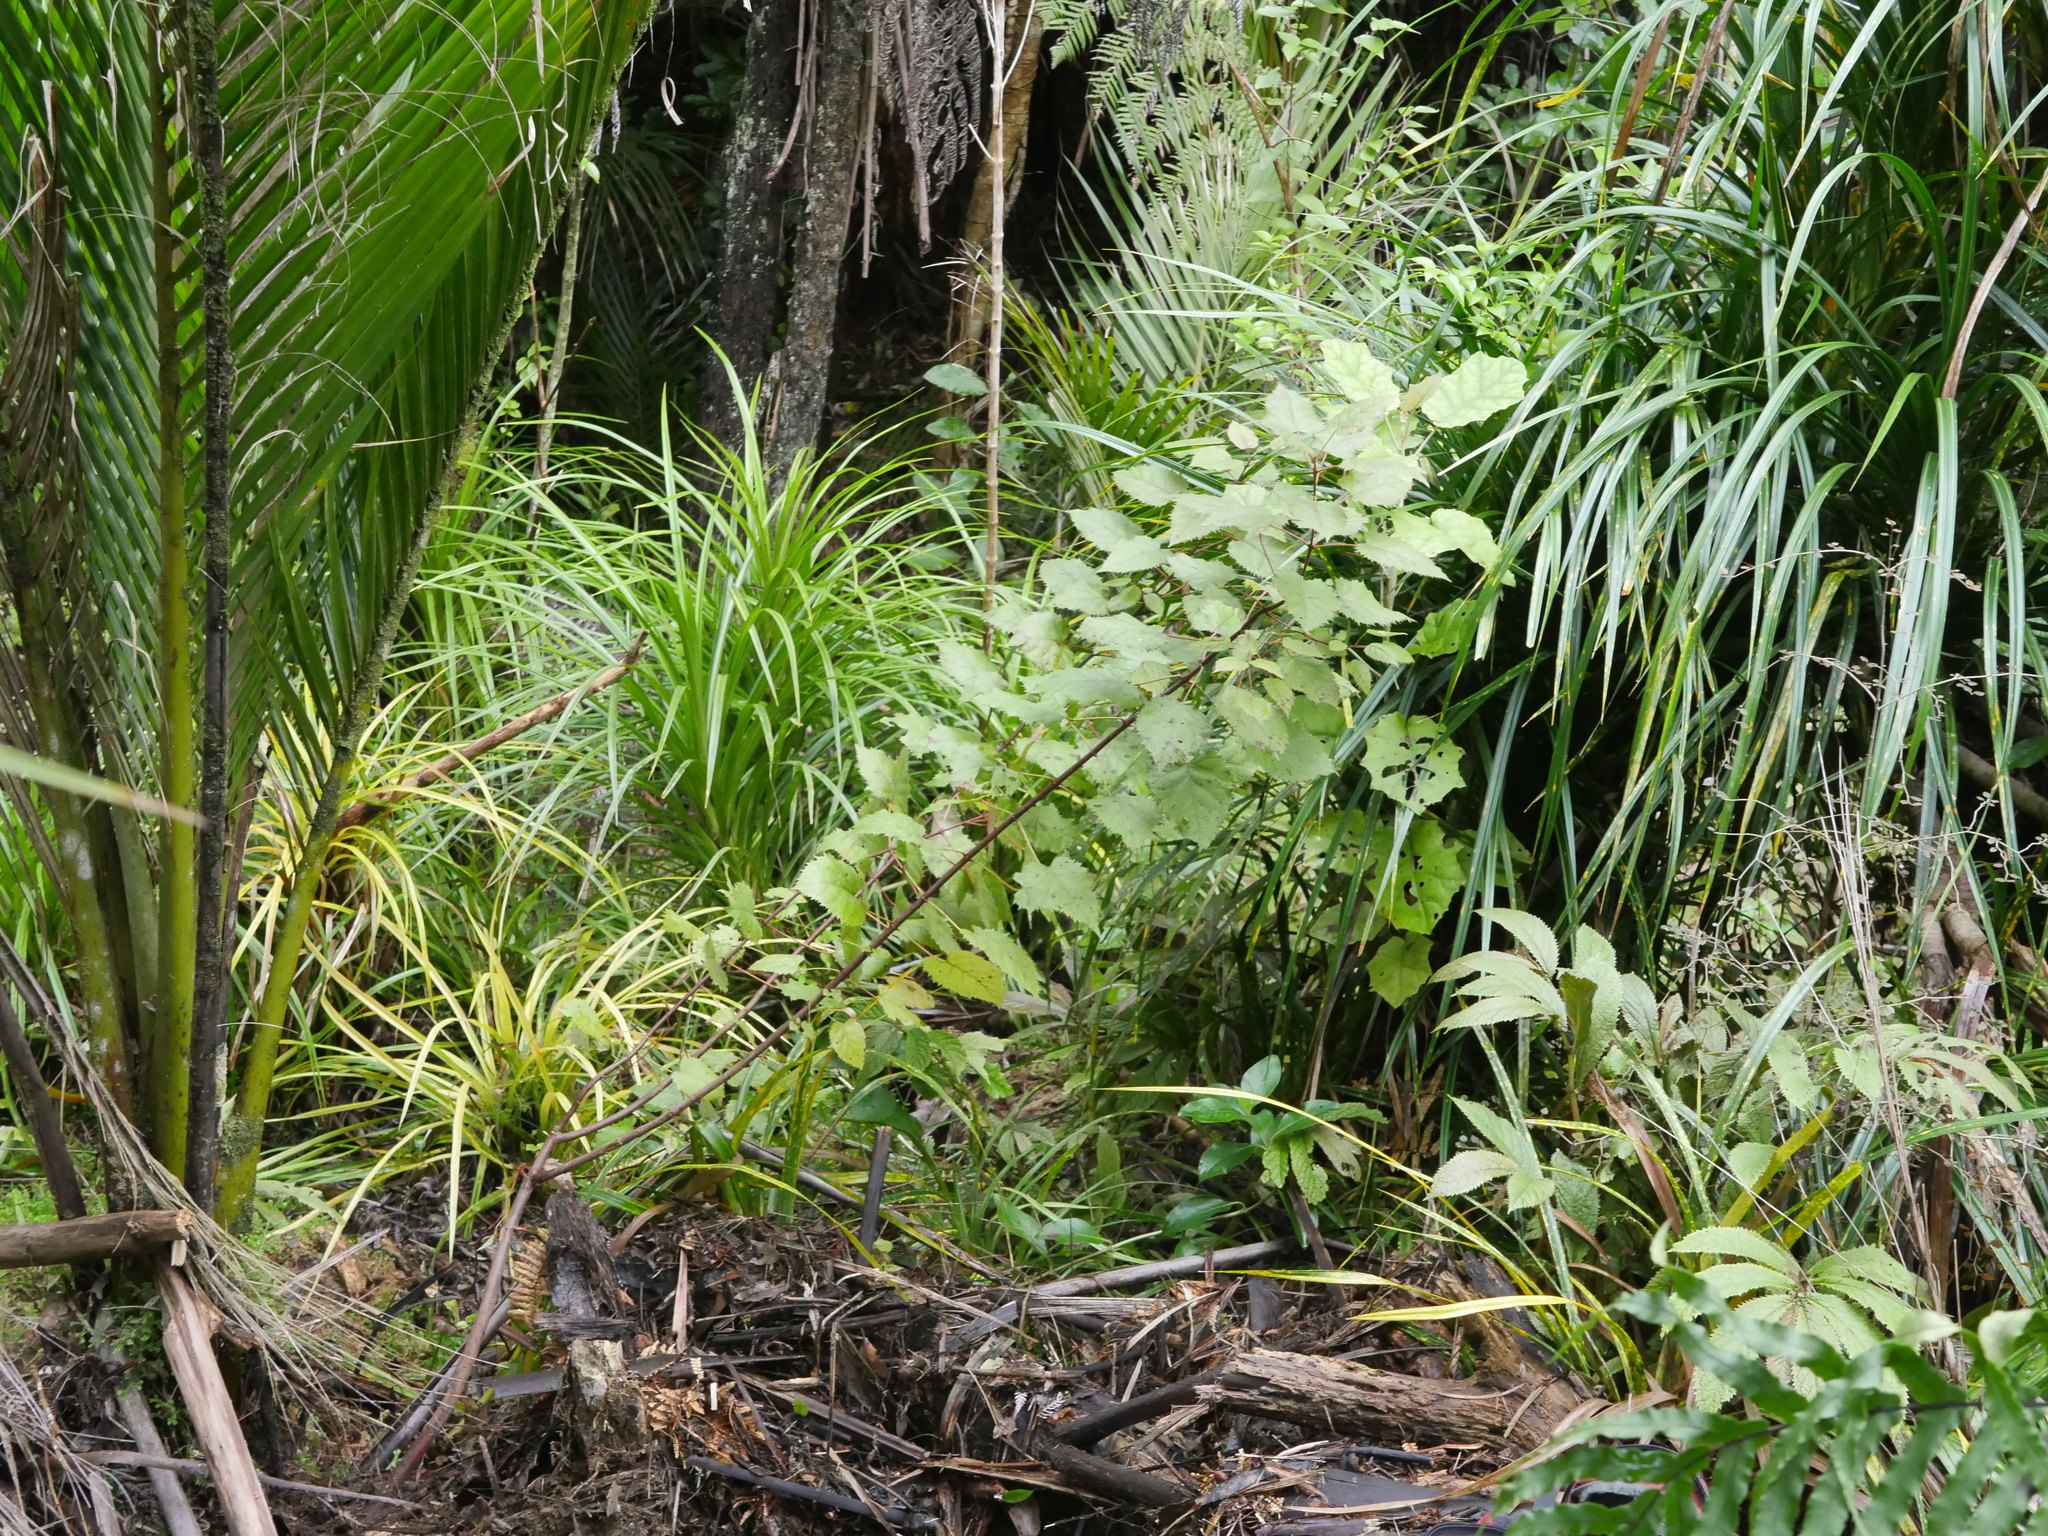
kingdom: Plantae
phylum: Tracheophyta
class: Magnoliopsida
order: Oxalidales
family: Elaeocarpaceae
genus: Aristotelia
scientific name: Aristotelia serrata
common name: New zealand wineberry
